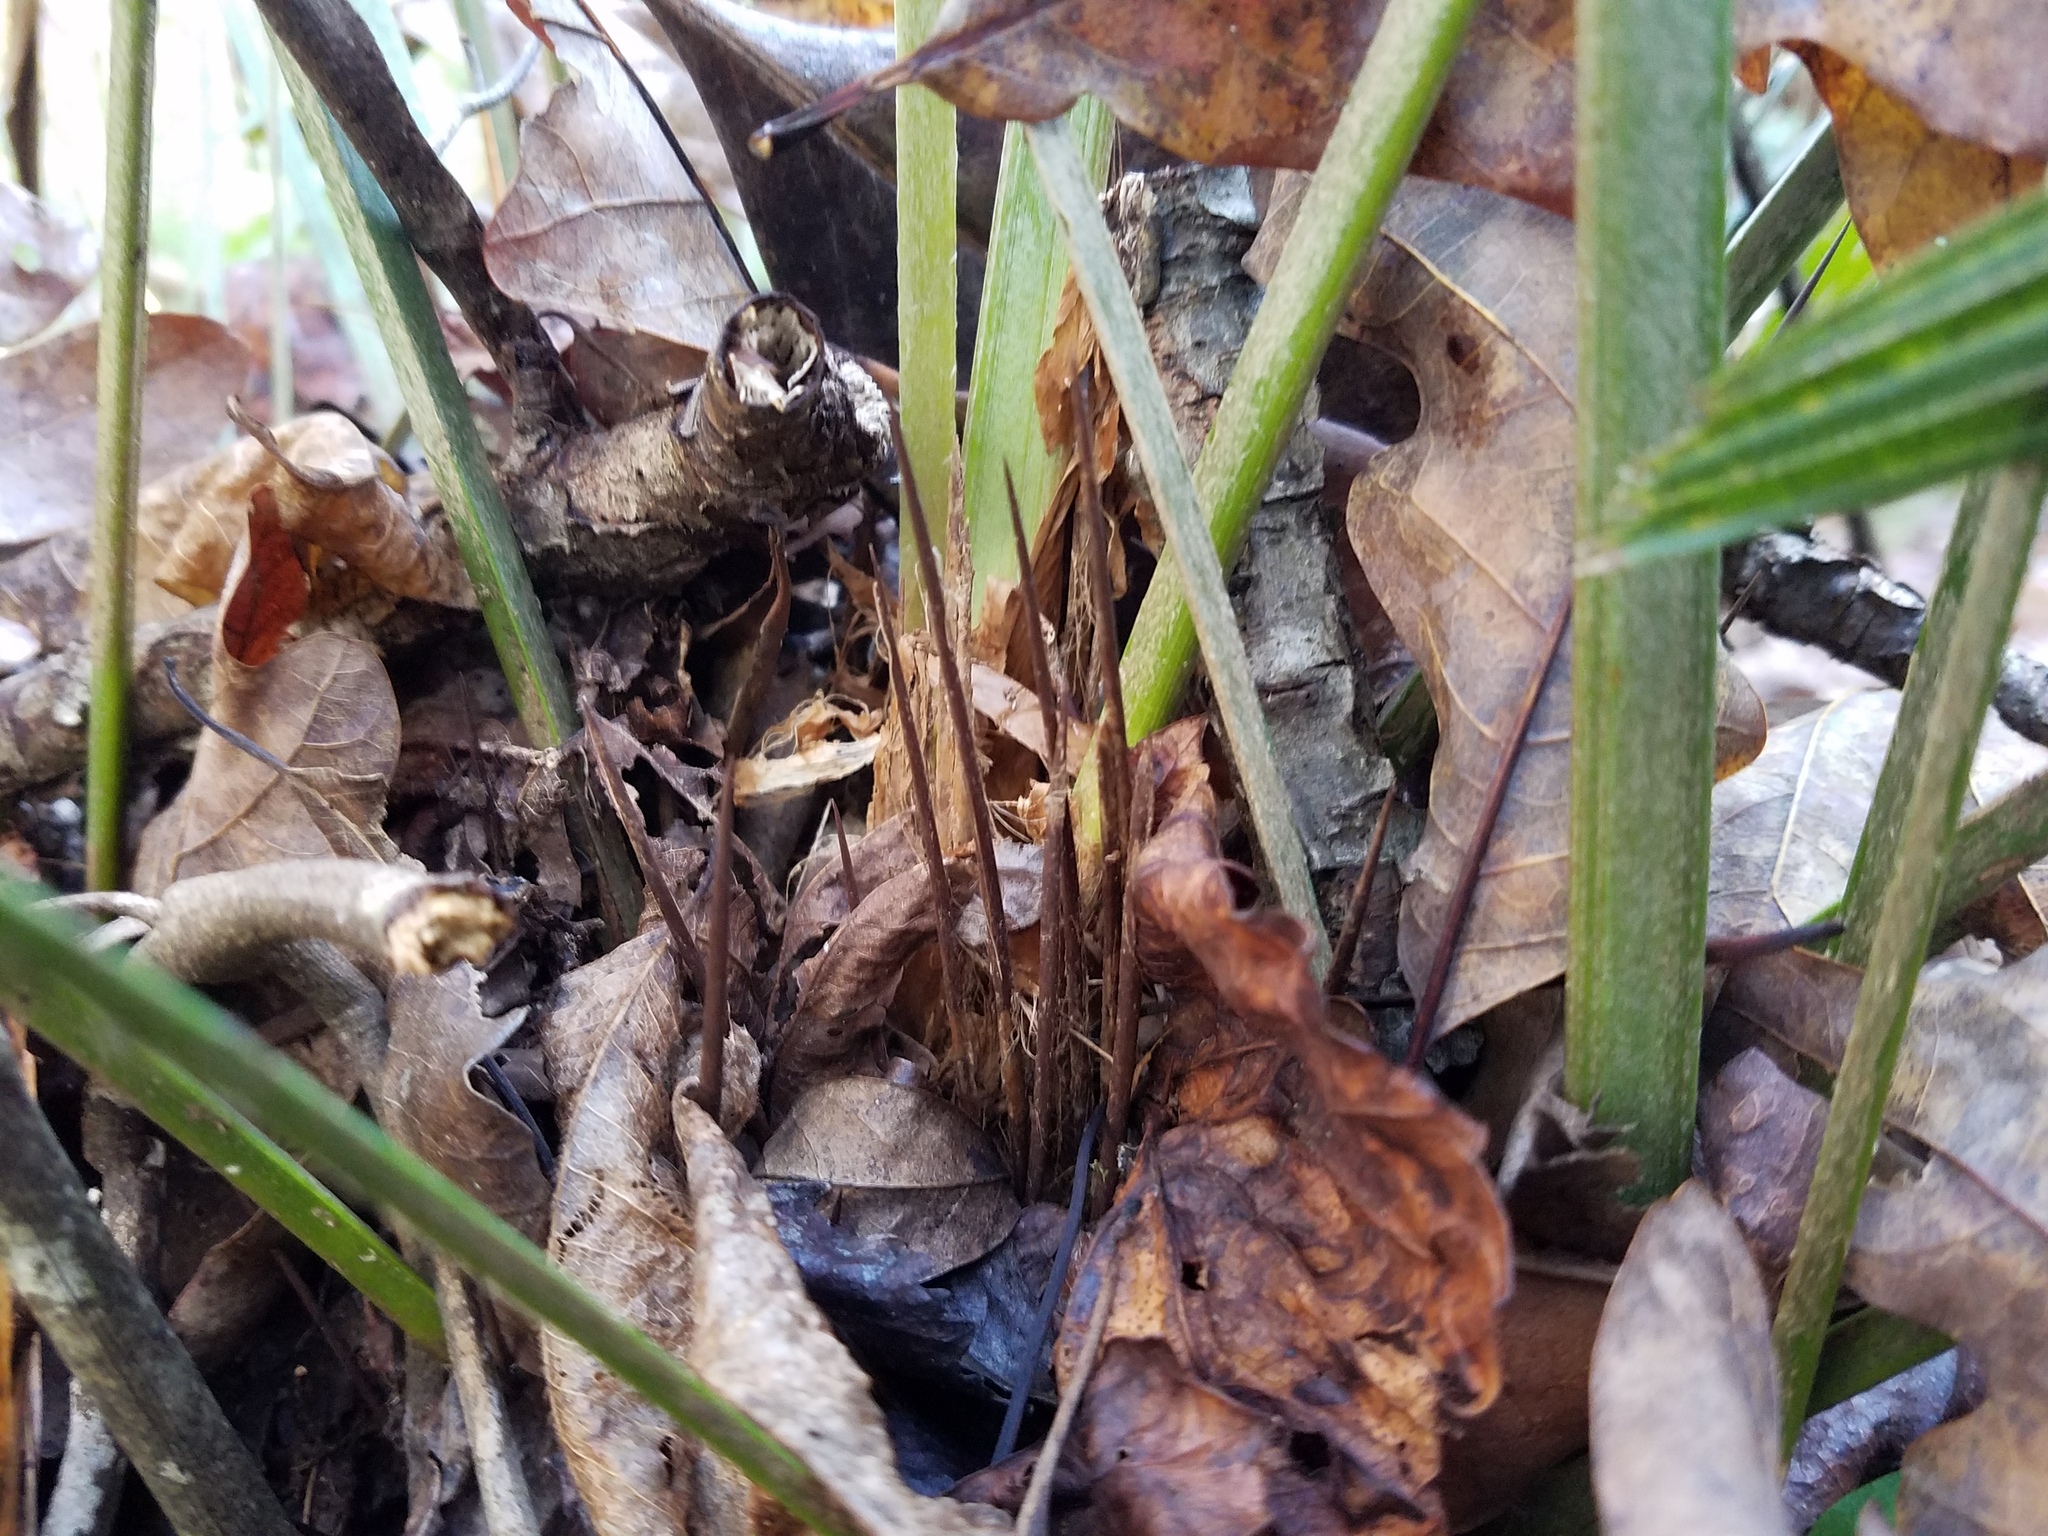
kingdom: Plantae
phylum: Tracheophyta
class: Liliopsida
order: Arecales
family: Arecaceae
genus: Rhapidophyllum
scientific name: Rhapidophyllum hystrix
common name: Porcupine palm
